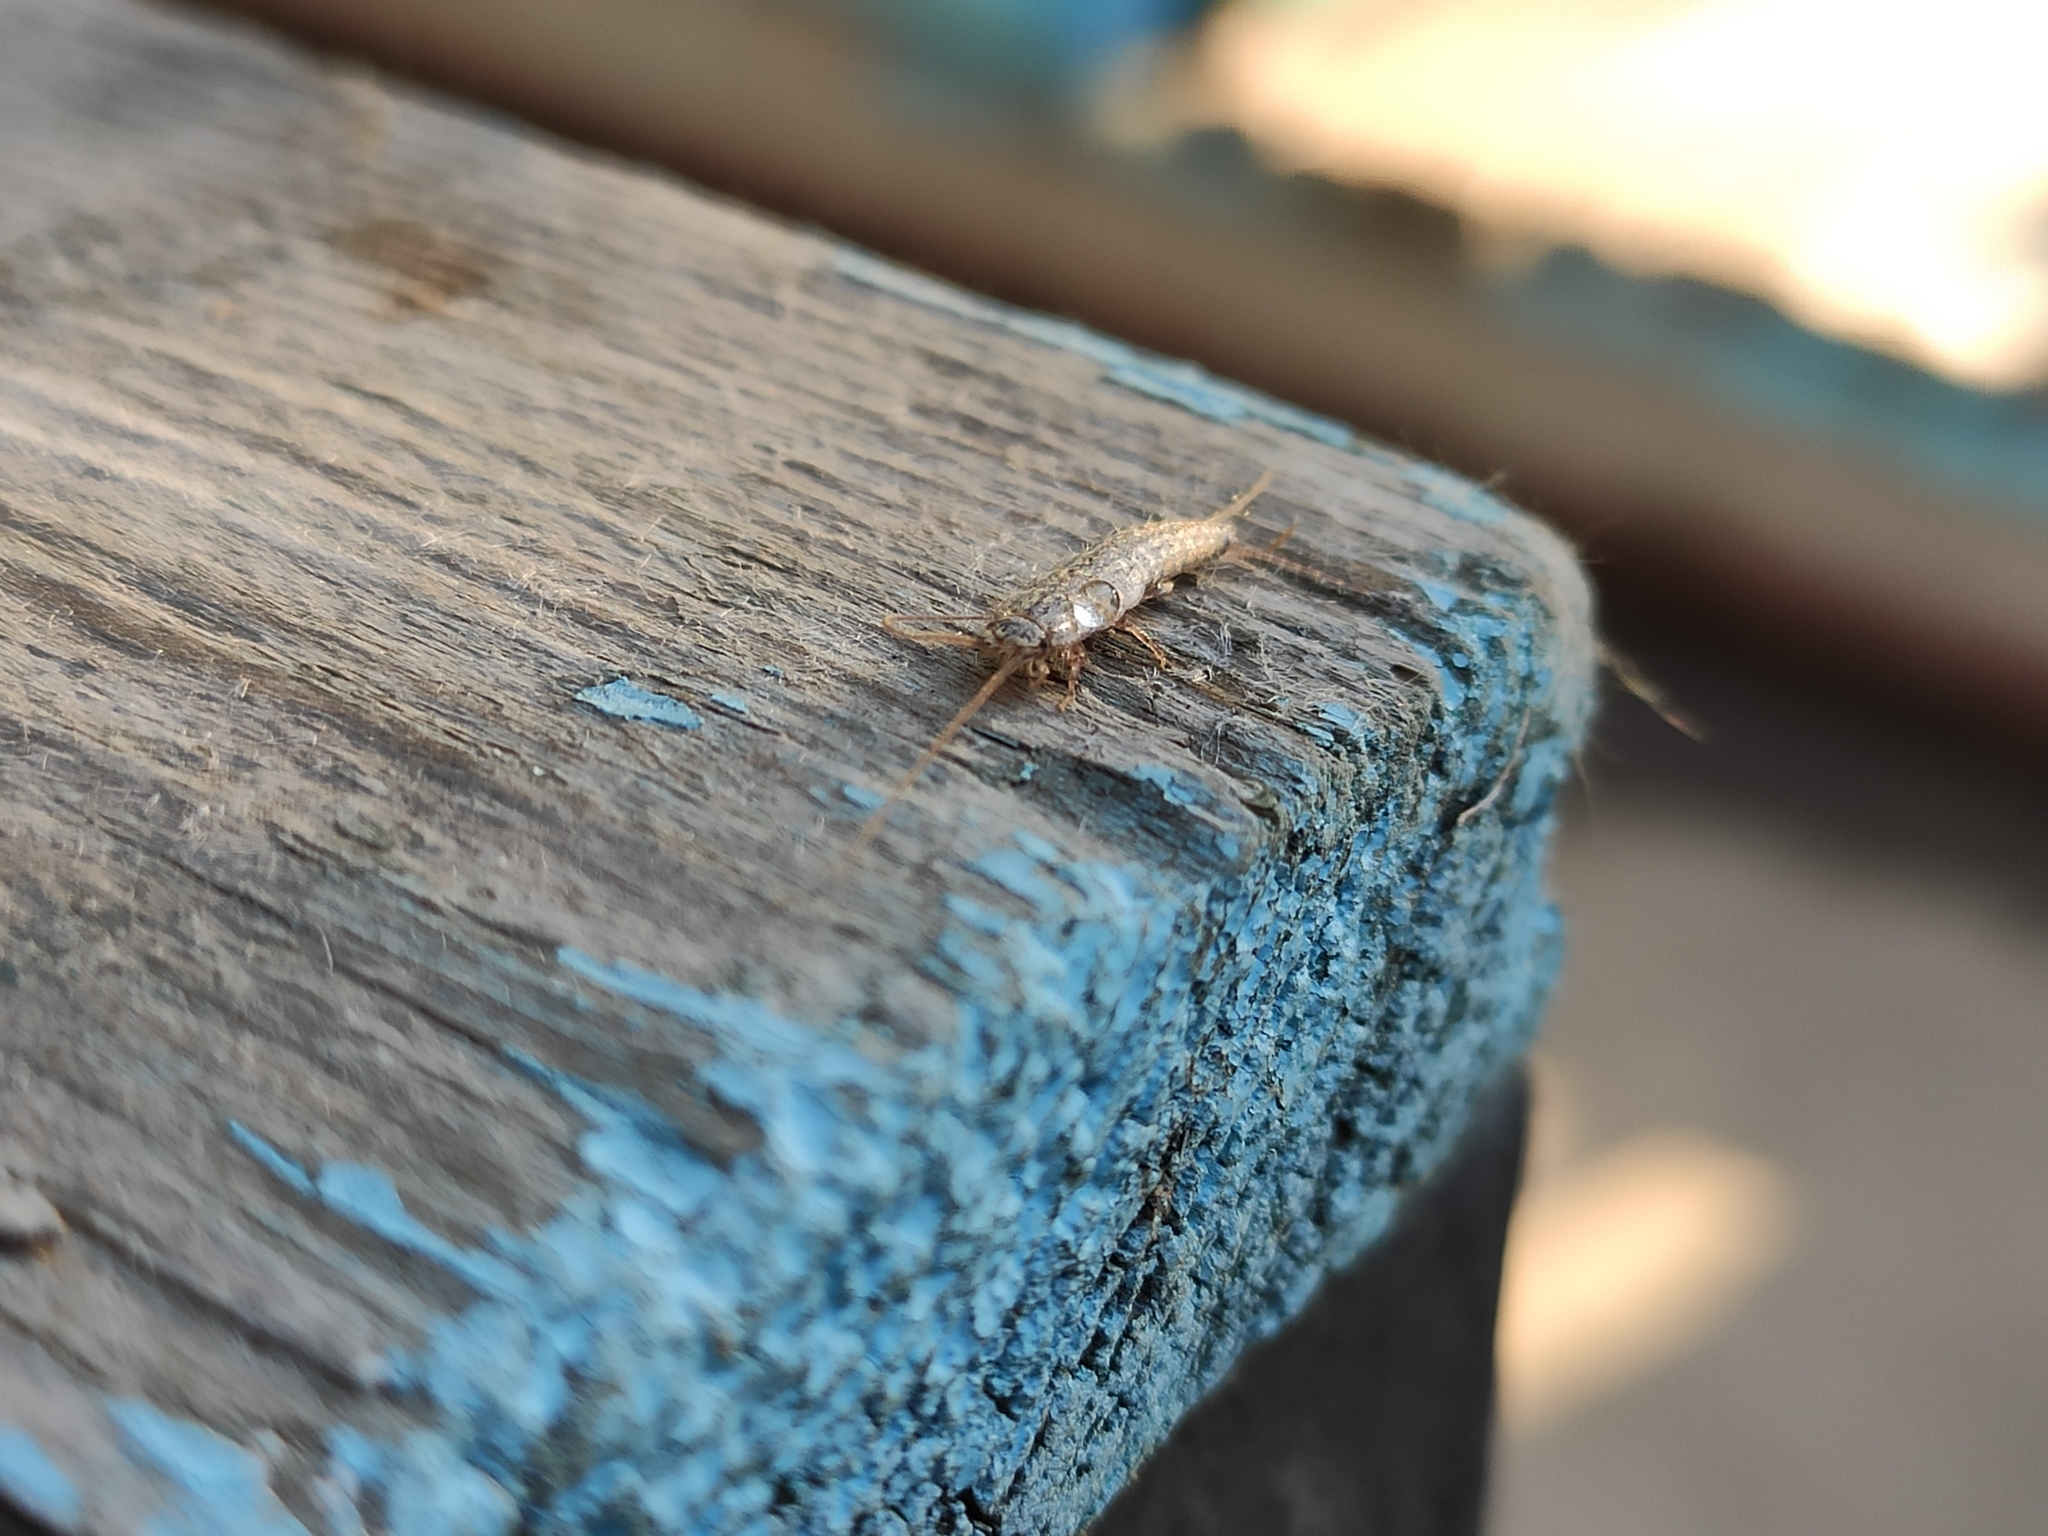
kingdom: Animalia
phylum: Arthropoda
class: Insecta
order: Zygentoma
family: Lepismatidae
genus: Ctenolepisma
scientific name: Ctenolepisma lineata
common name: Four-lined silverfish
